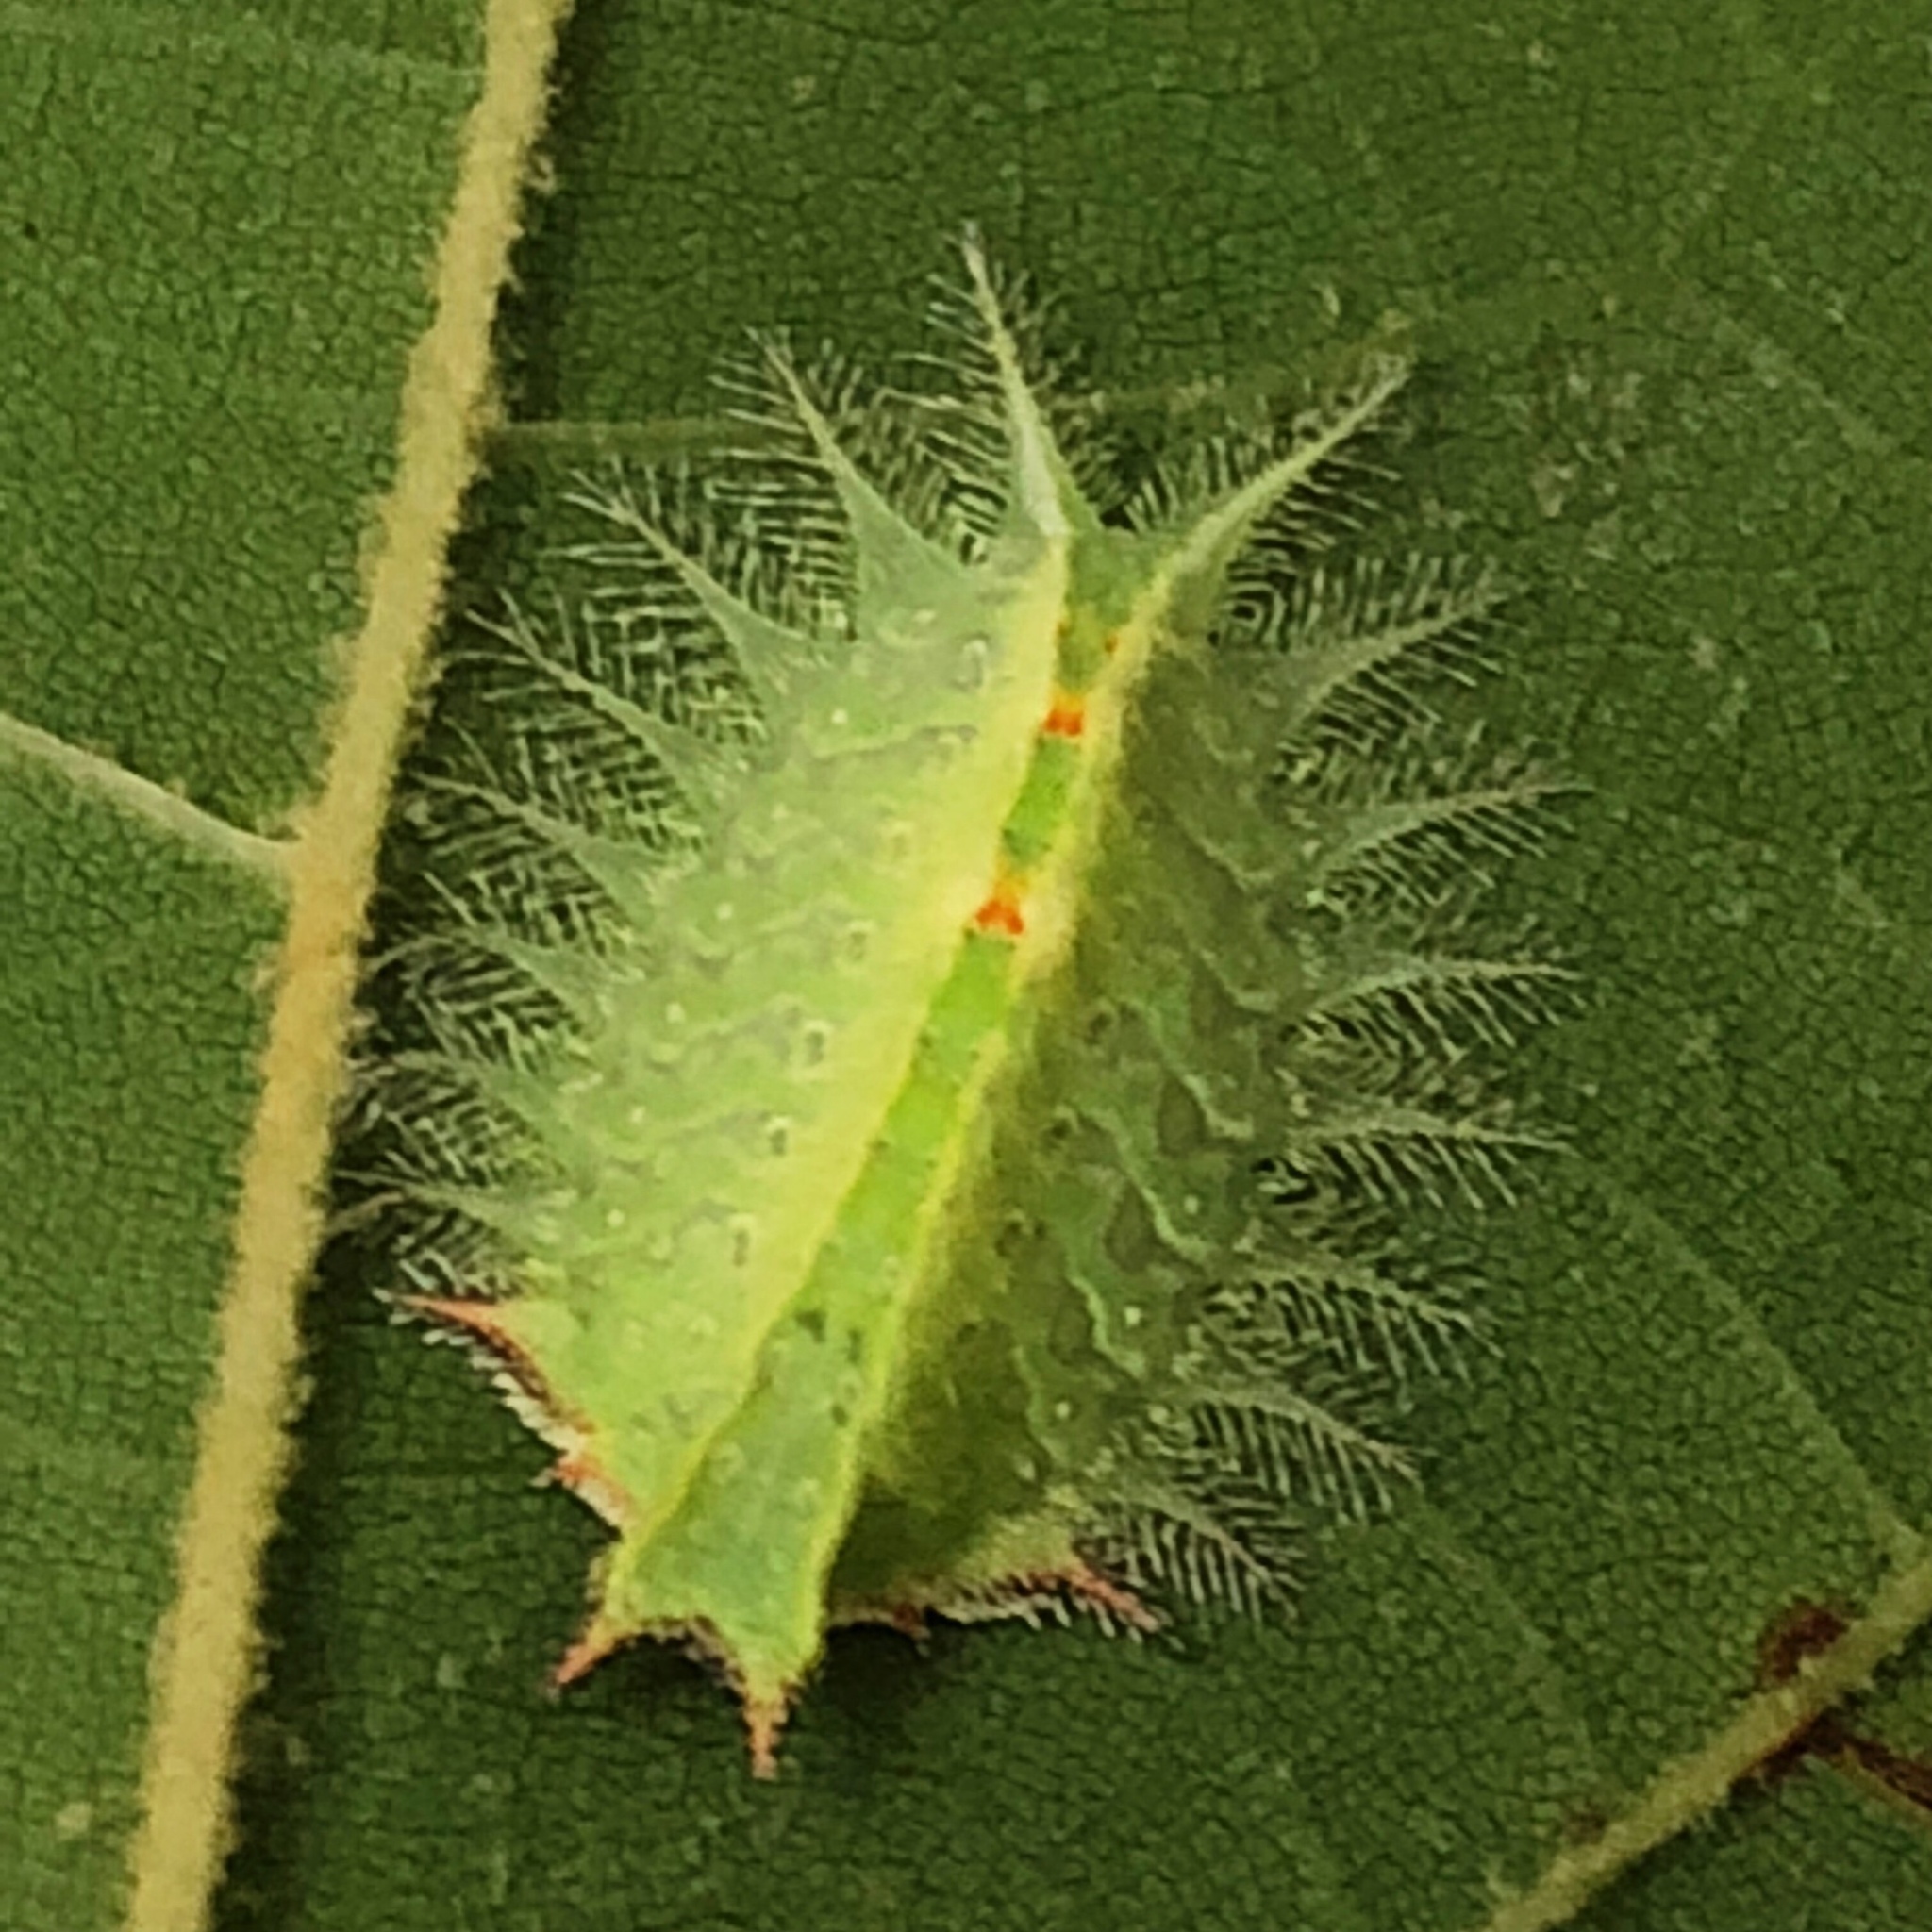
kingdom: Animalia
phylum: Arthropoda
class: Insecta
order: Lepidoptera
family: Limacodidae
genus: Isa
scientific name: Isa textula
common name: Crowned slug moth
